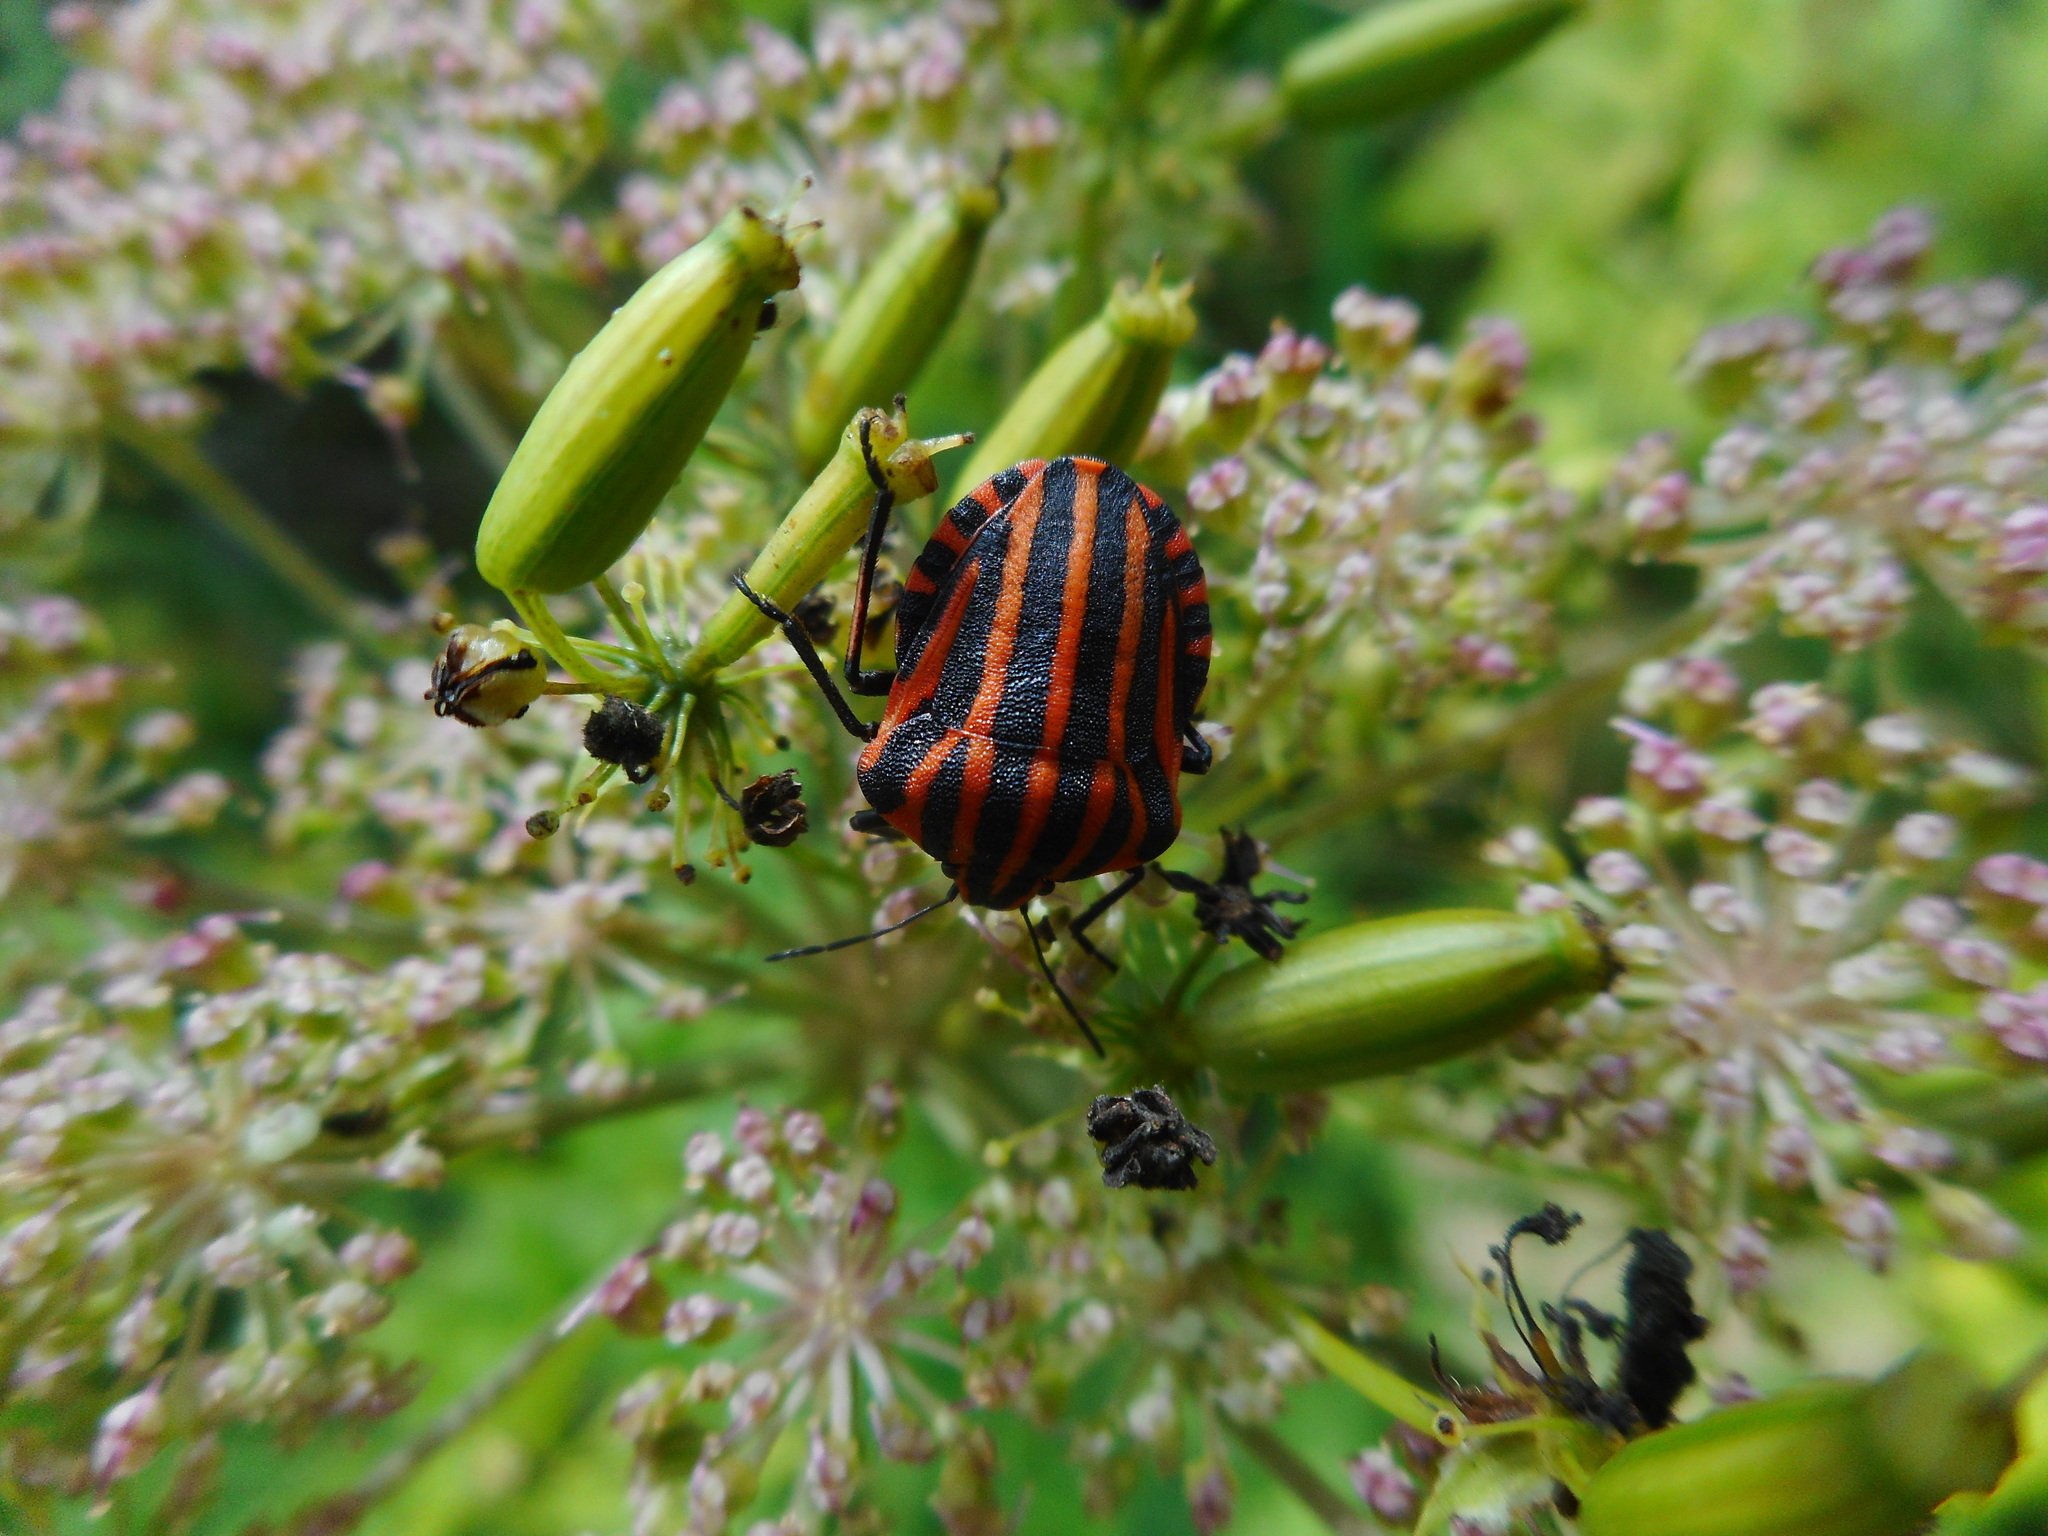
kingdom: Animalia
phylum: Arthropoda
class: Insecta
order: Hemiptera
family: Pentatomidae
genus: Graphosoma
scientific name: Graphosoma italicum
